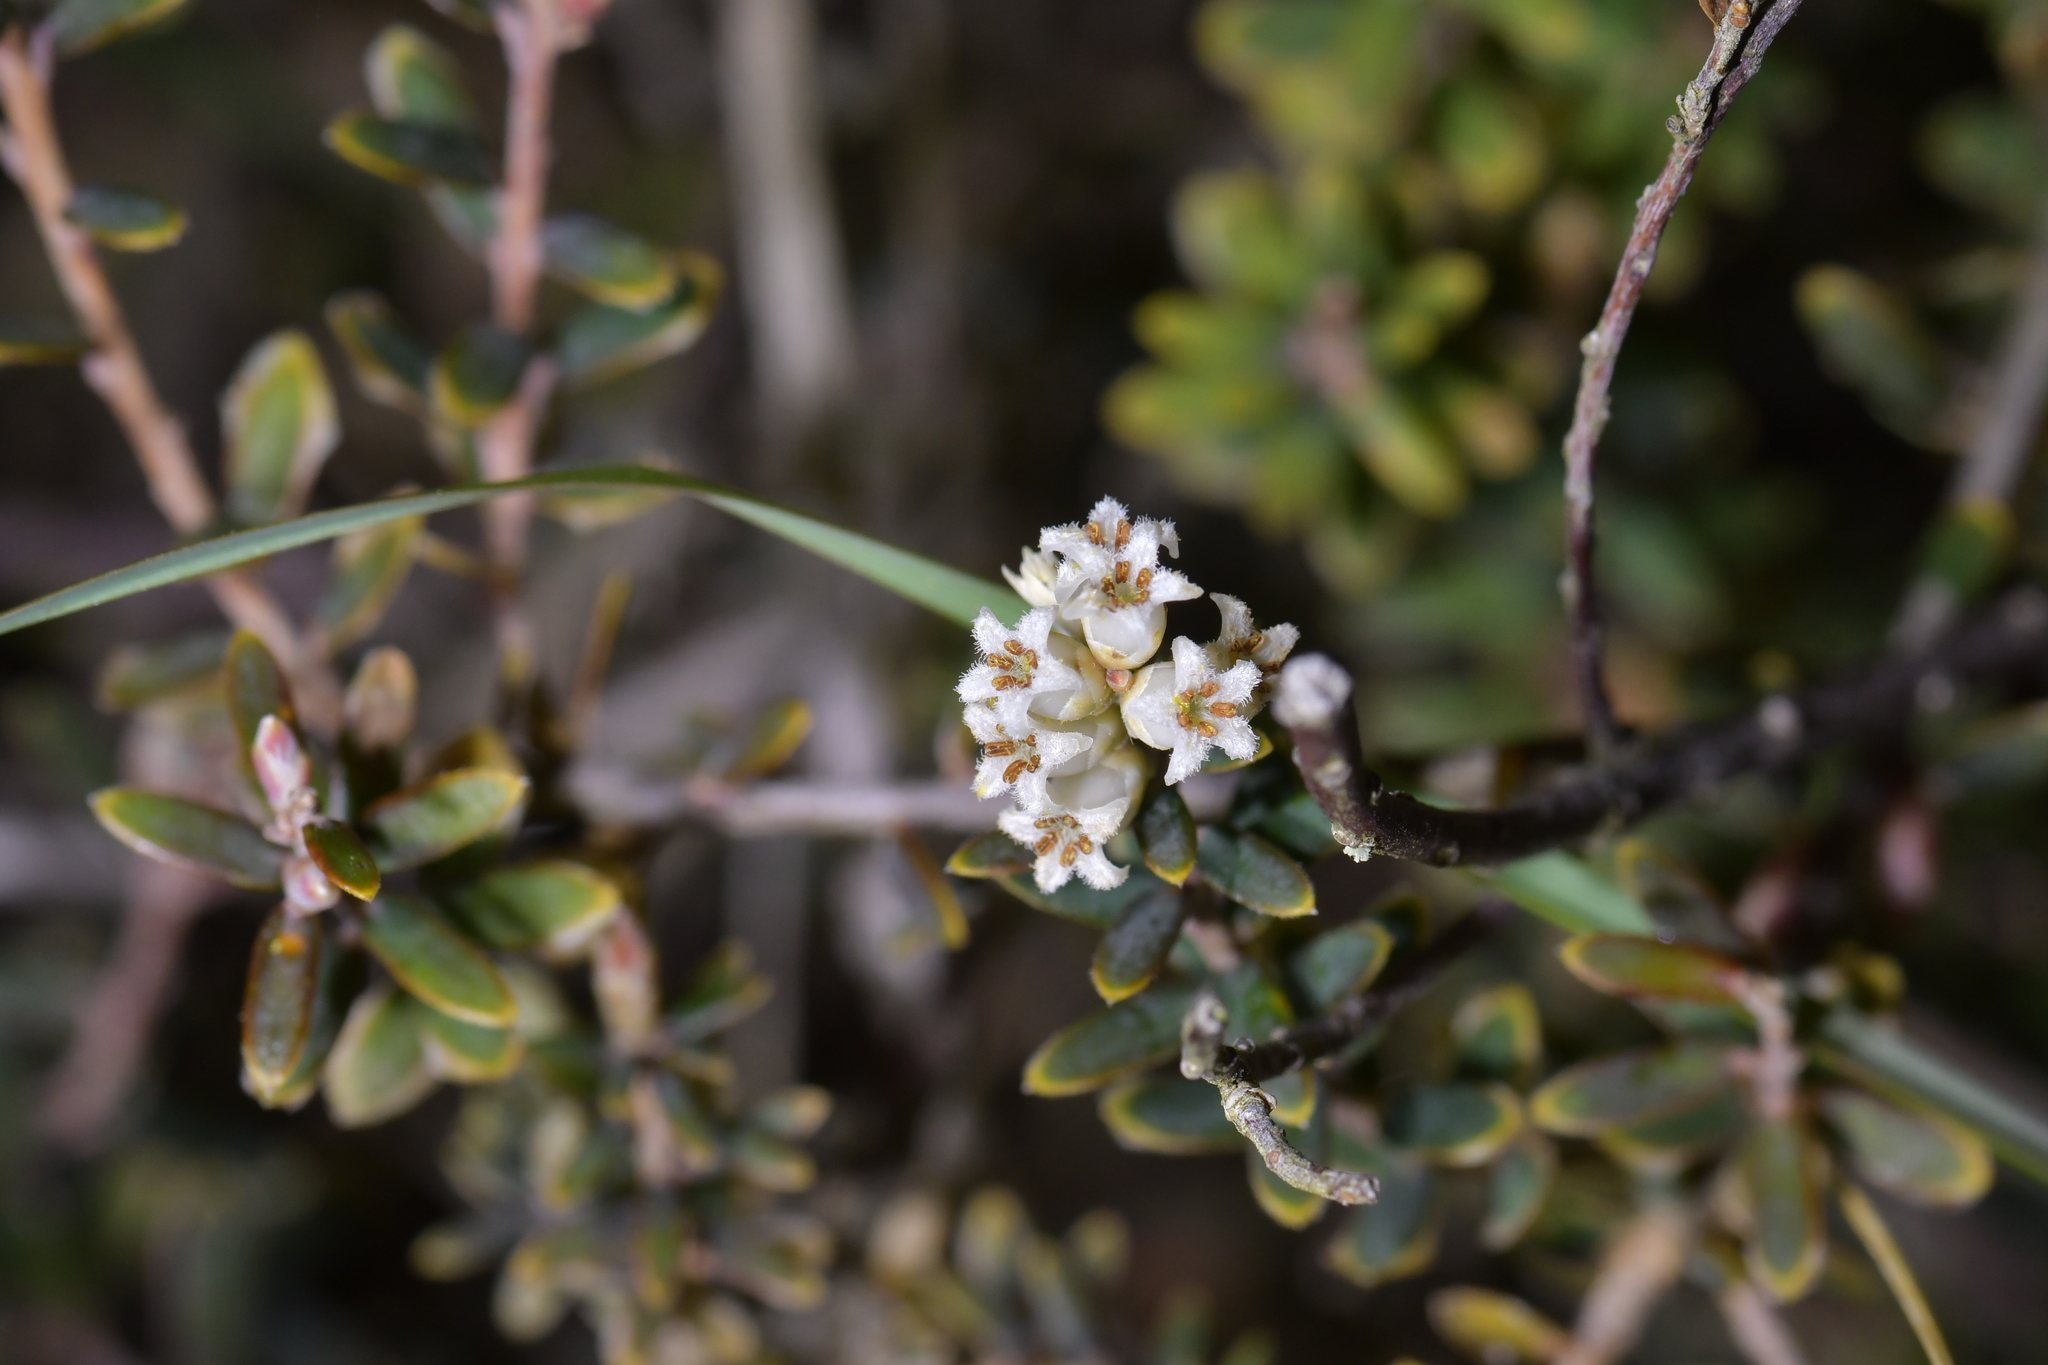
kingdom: Plantae
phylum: Tracheophyta
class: Magnoliopsida
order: Ericales
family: Ericaceae
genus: Acrothamnus
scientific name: Acrothamnus colensoi
